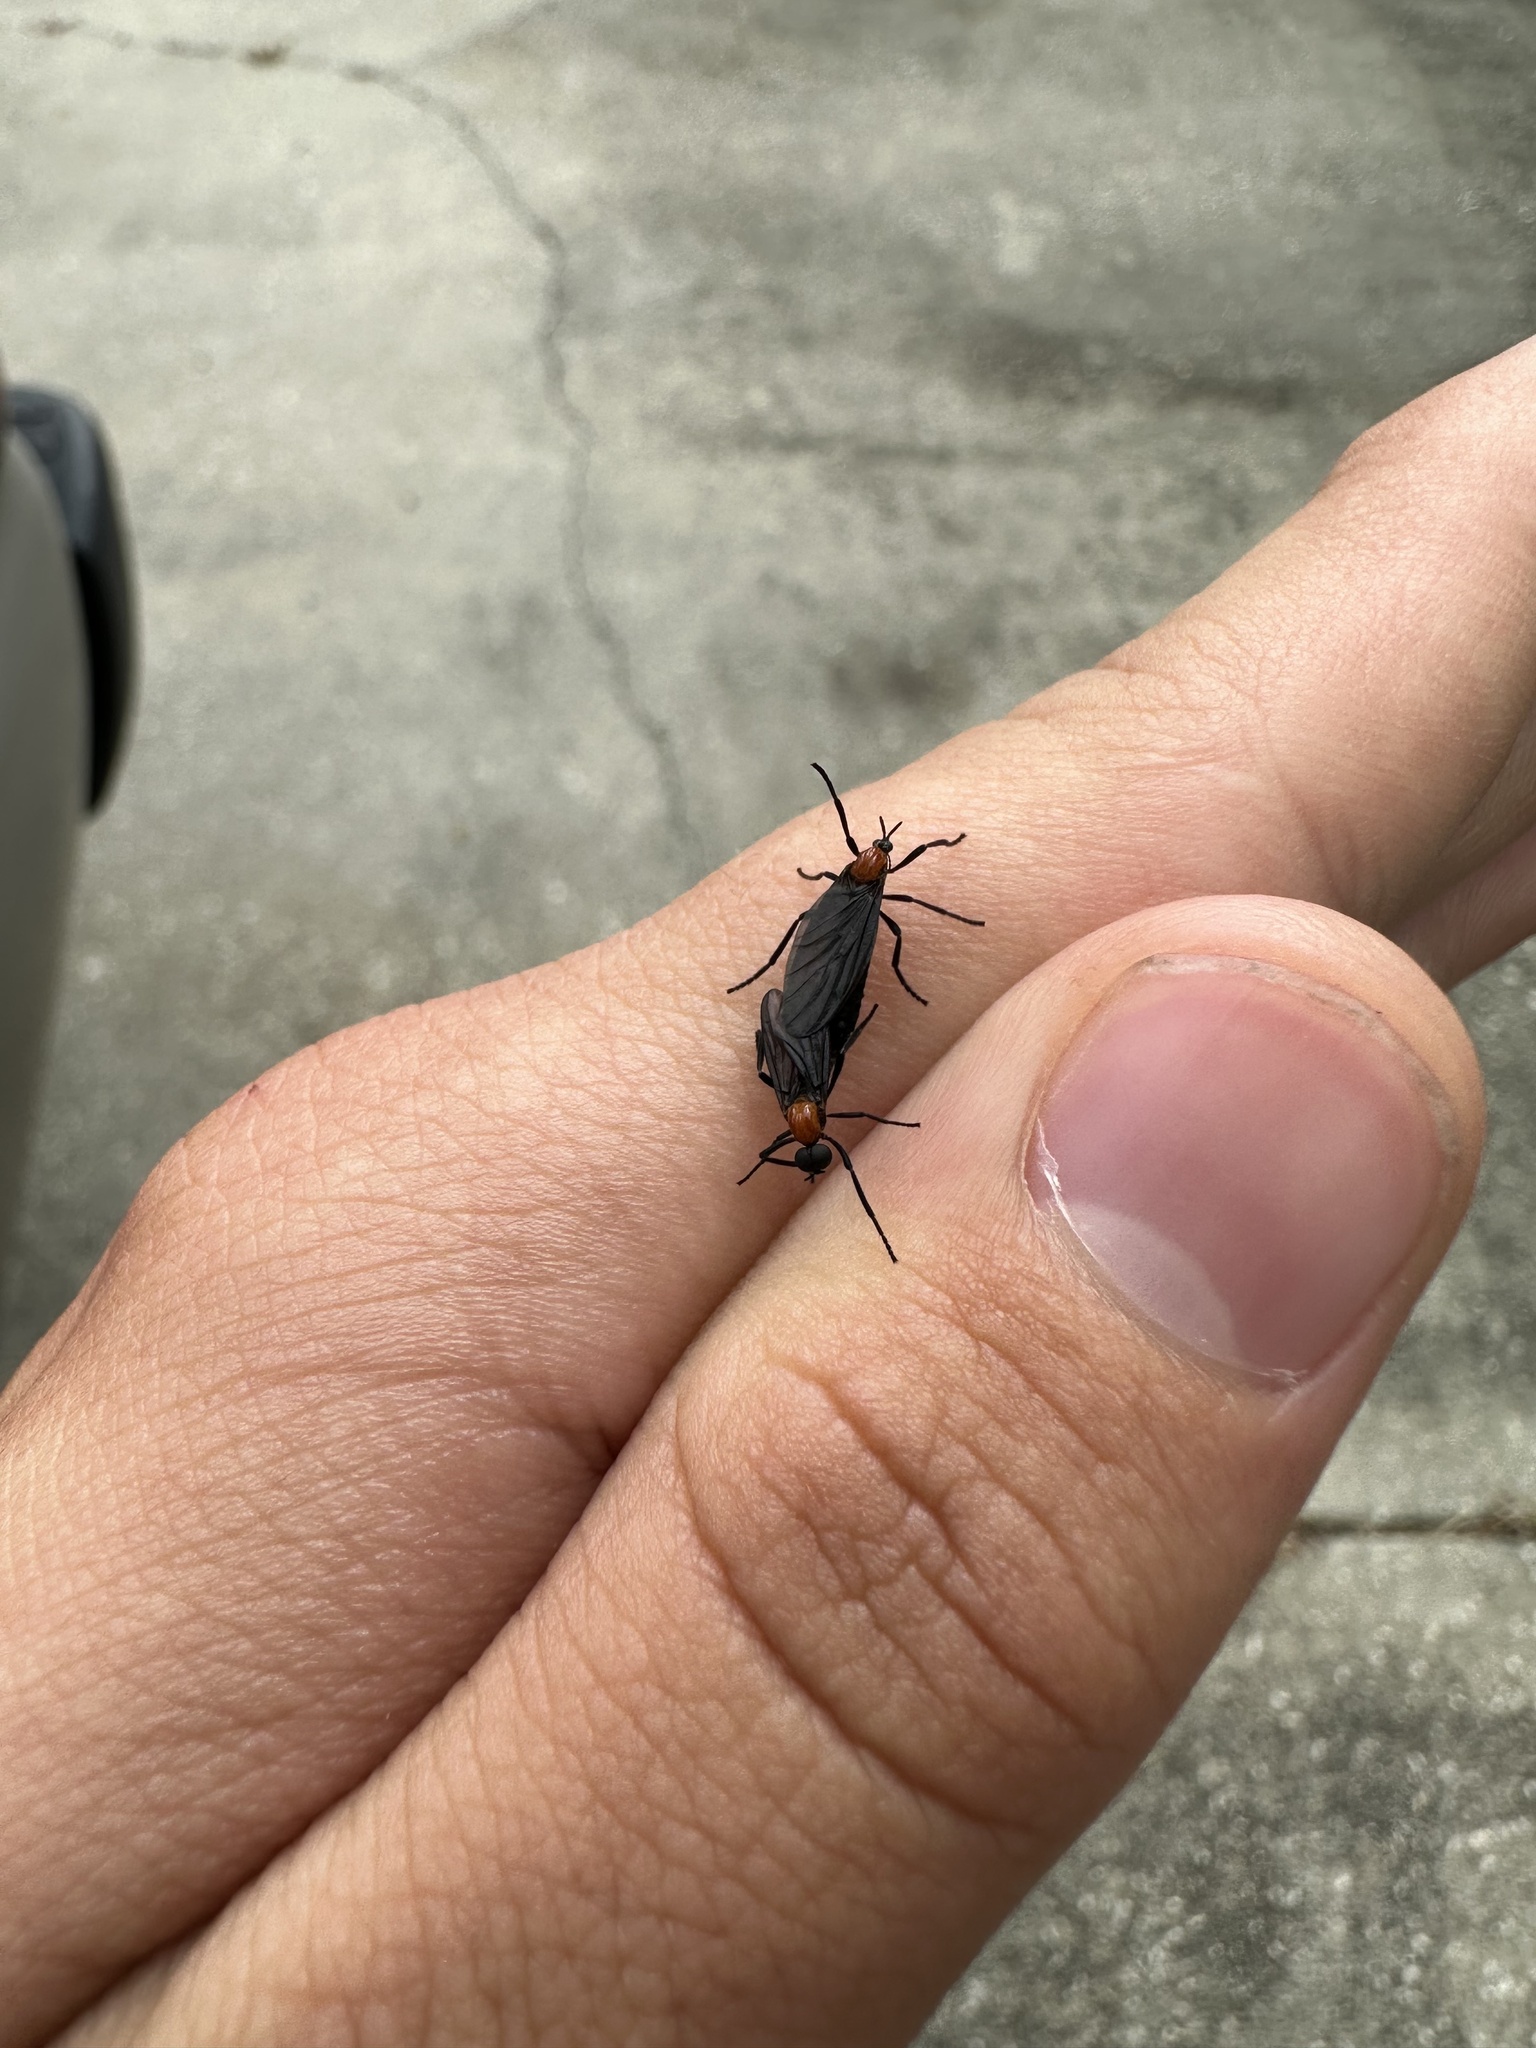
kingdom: Animalia
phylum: Arthropoda
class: Insecta
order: Diptera
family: Bibionidae
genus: Plecia
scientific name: Plecia nearctica
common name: March fly
